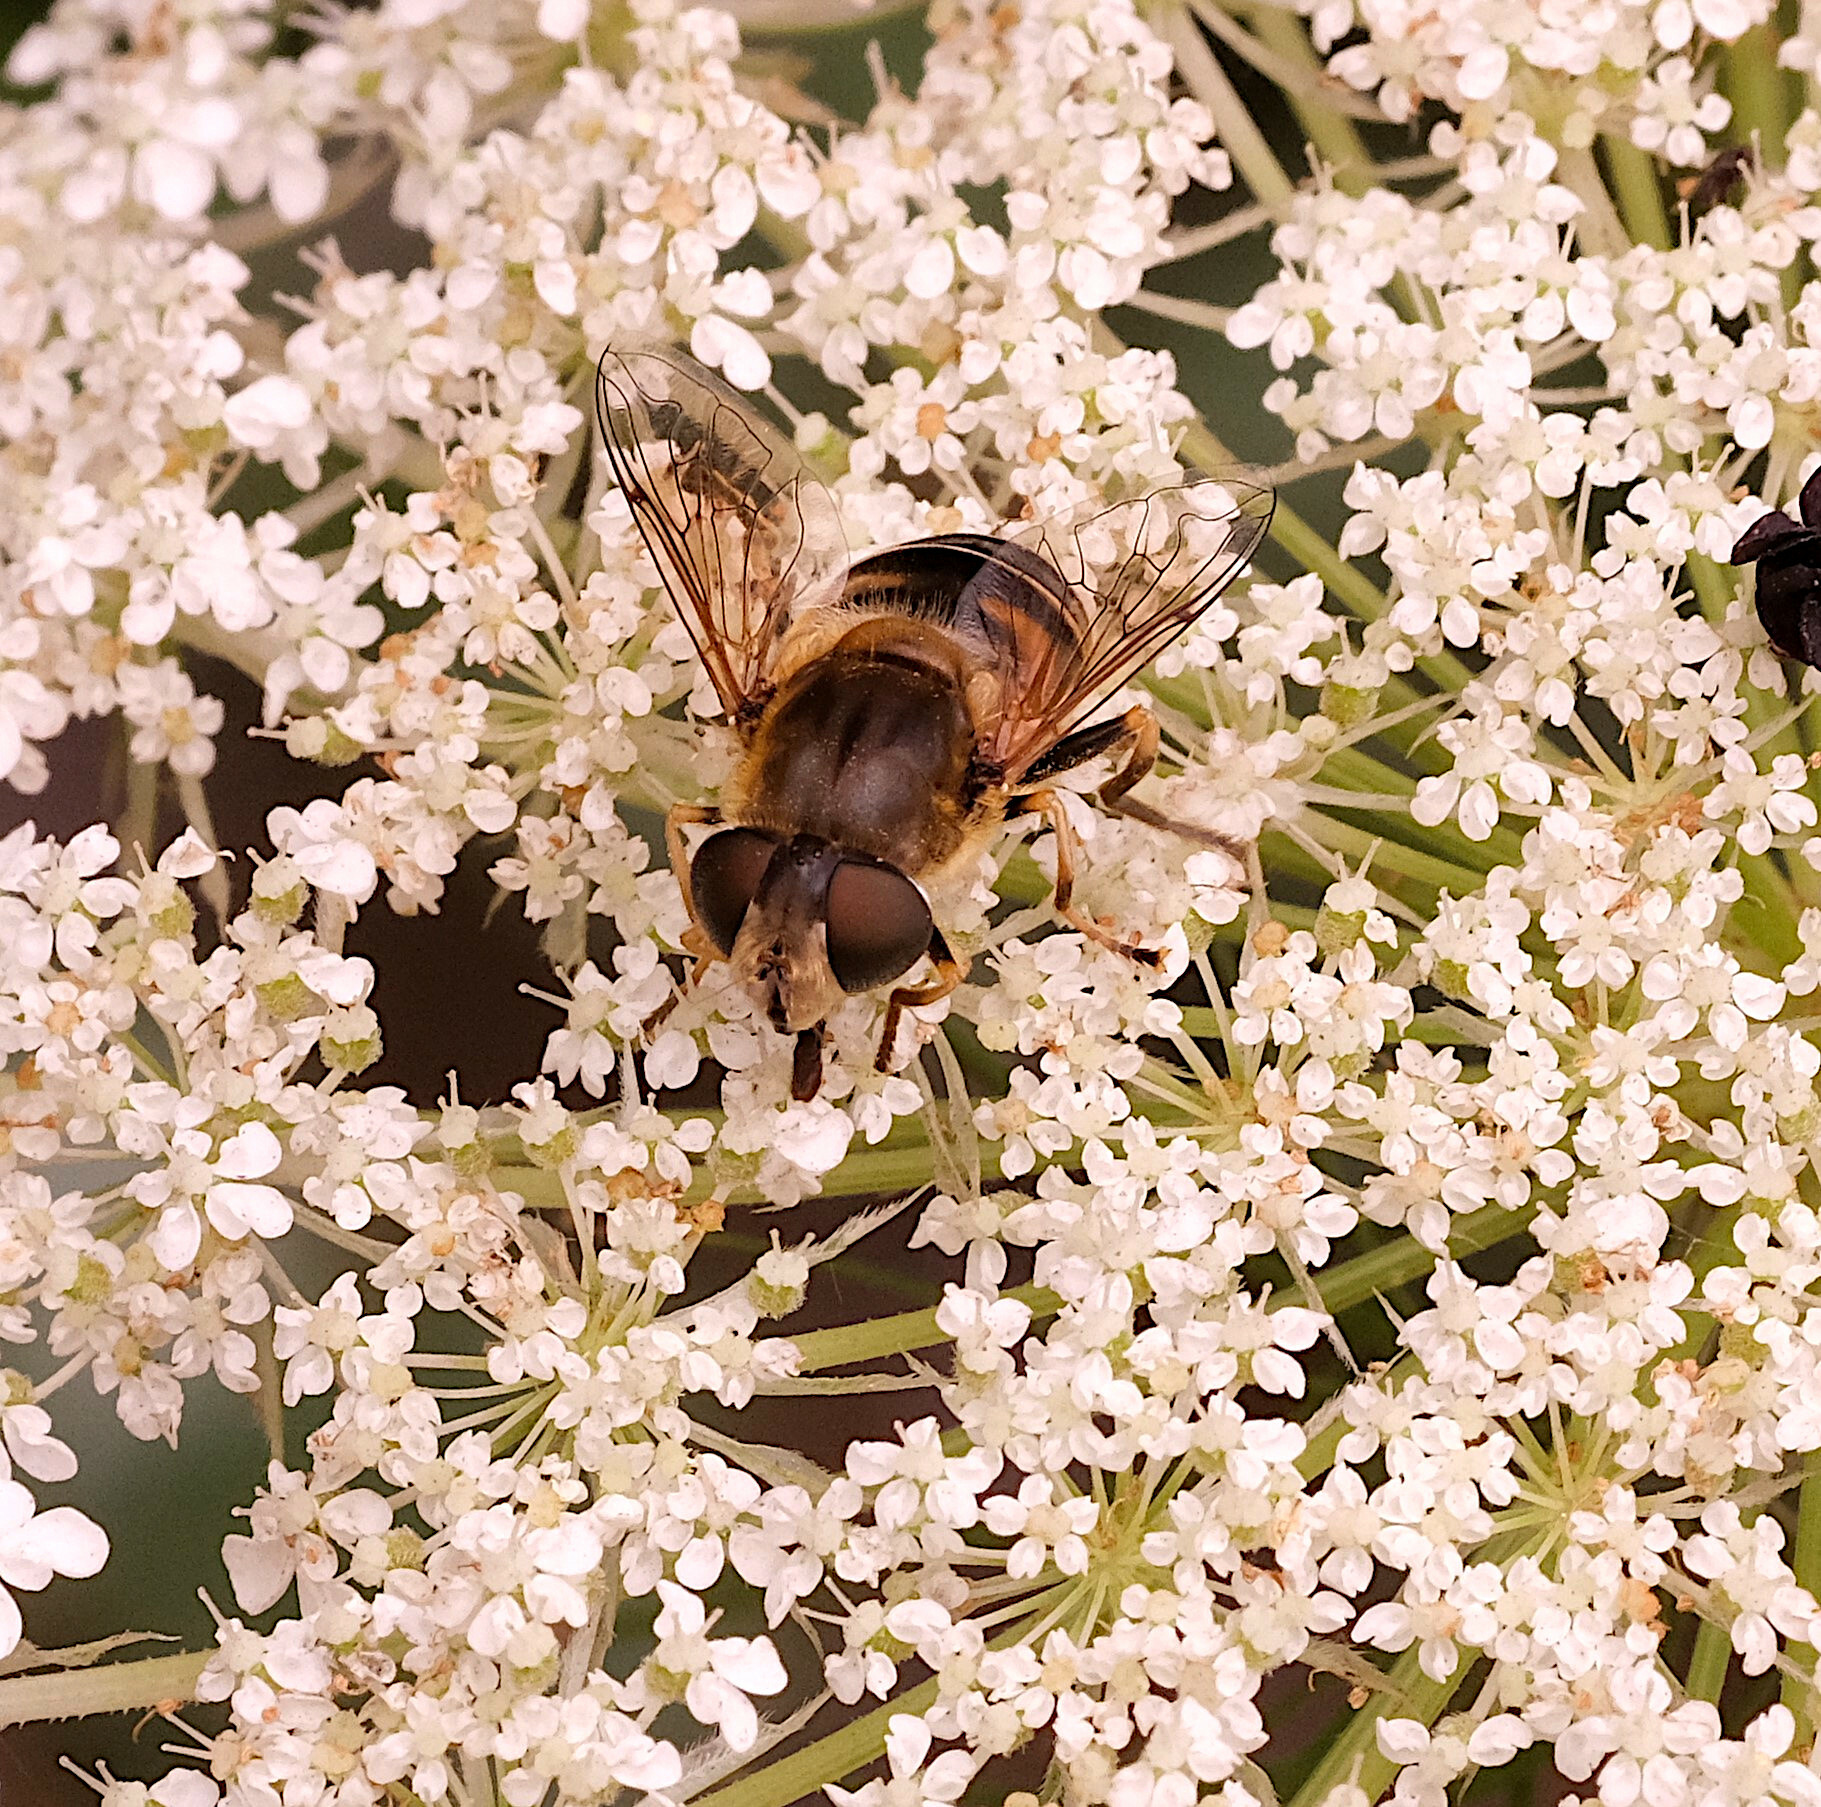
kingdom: Animalia
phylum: Arthropoda
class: Insecta
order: Diptera
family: Syrphidae
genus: Eristalis
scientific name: Eristalis nemorum
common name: Orange-spined drone fly
